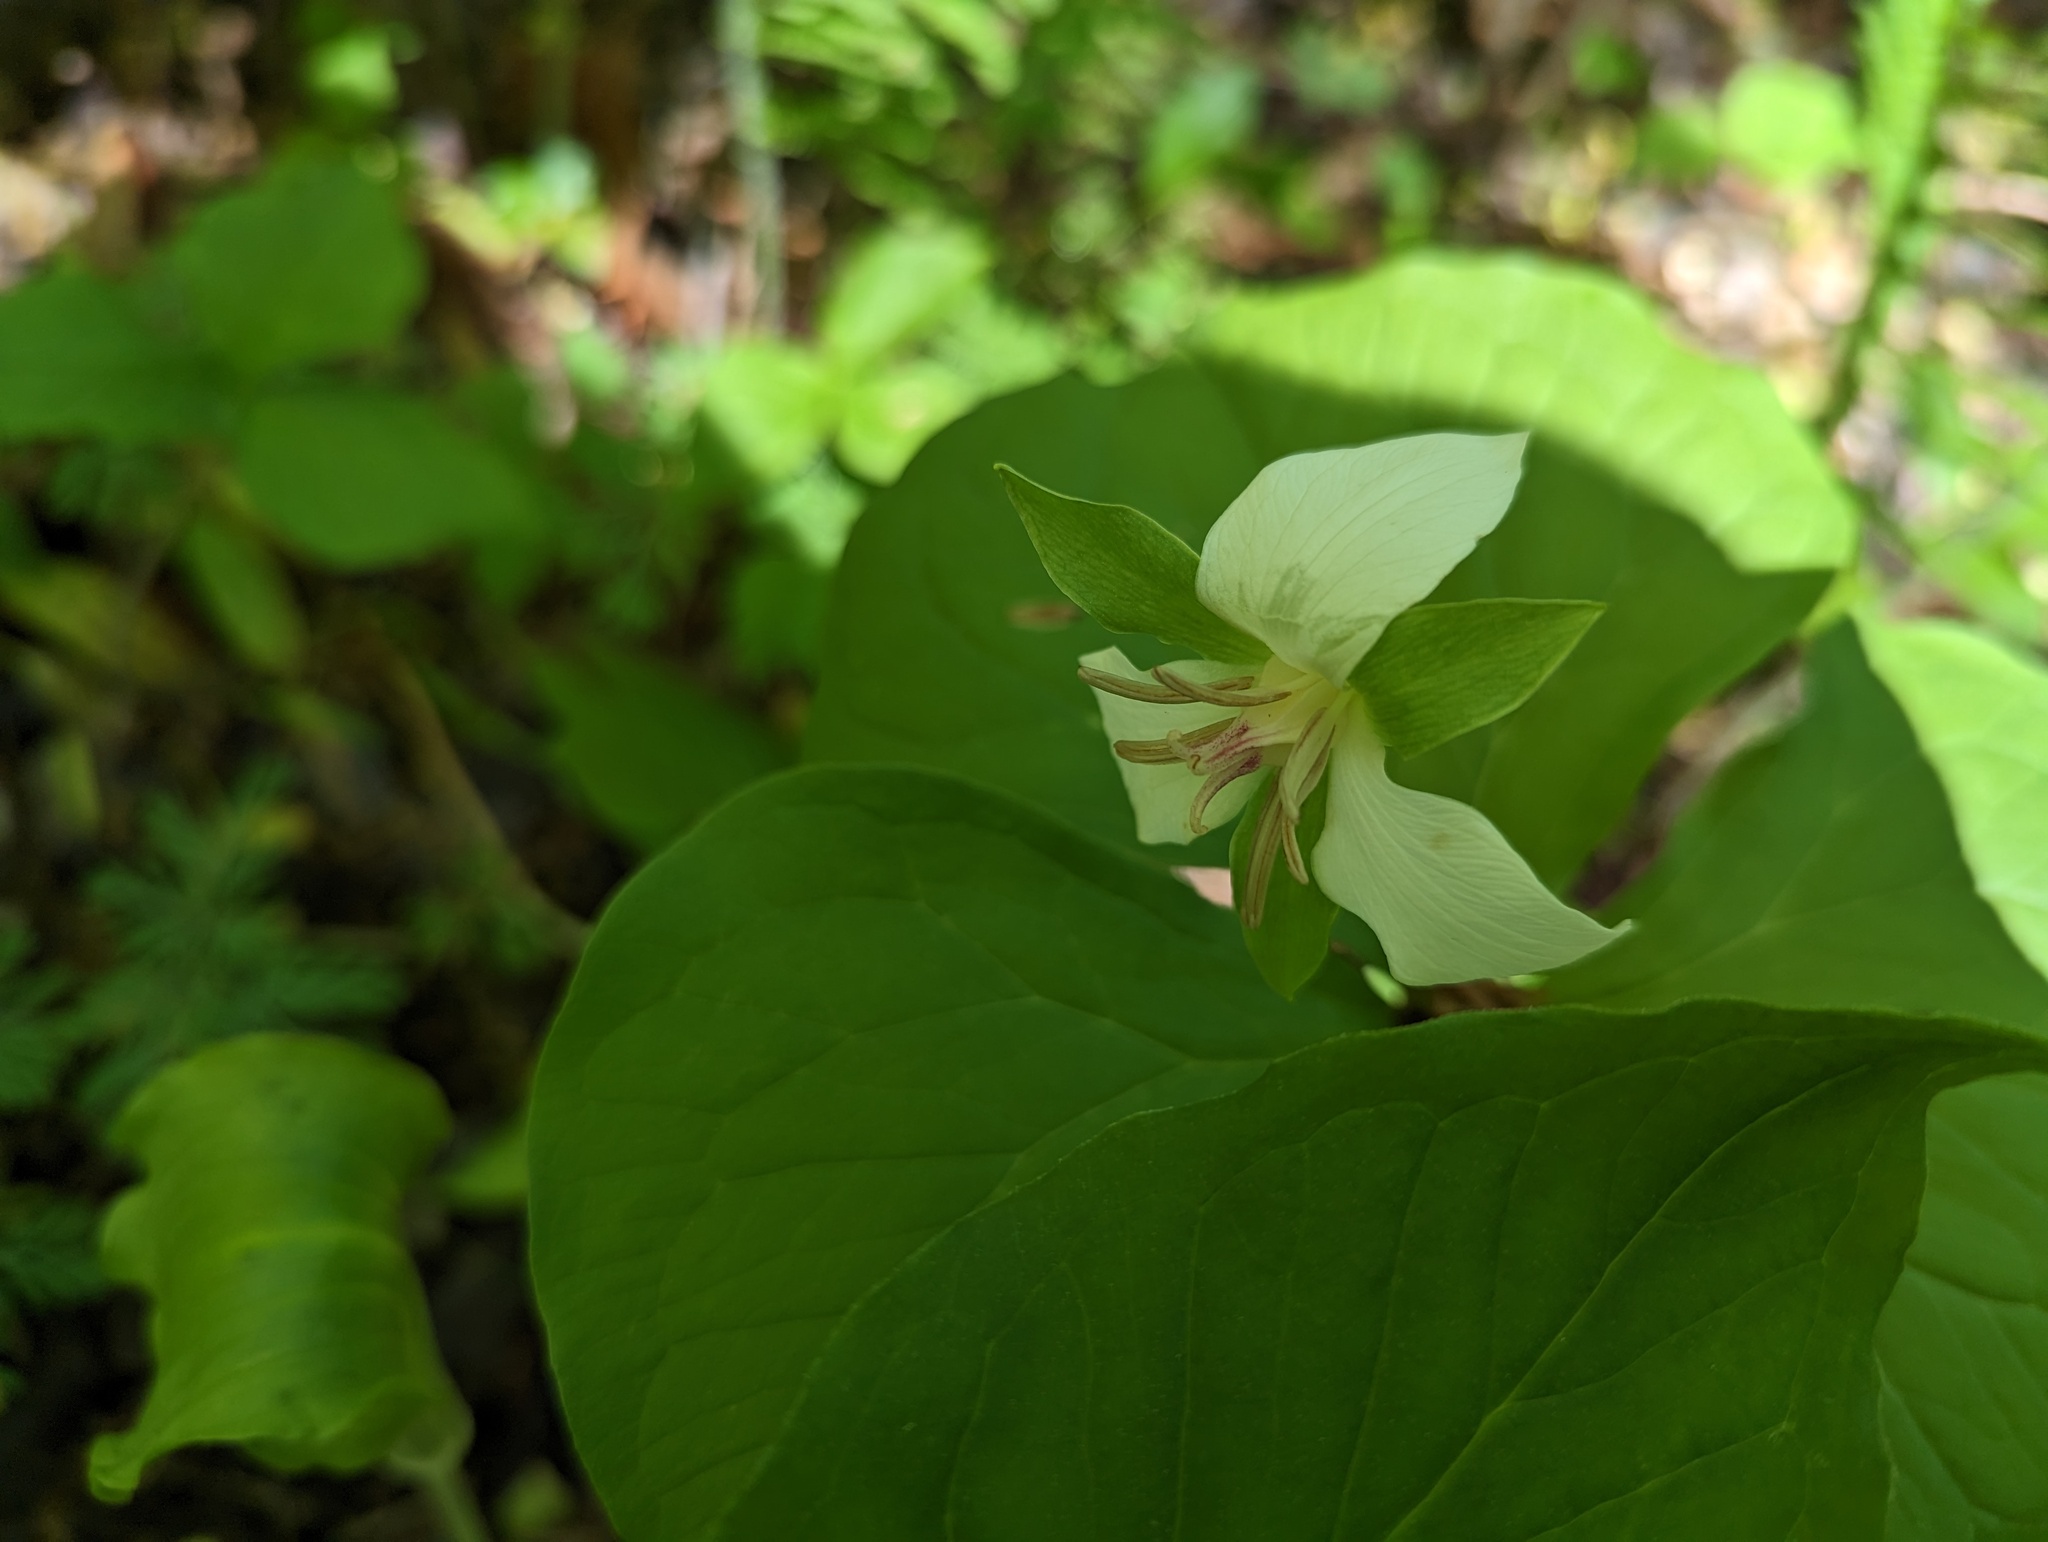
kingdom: Plantae
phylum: Tracheophyta
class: Liliopsida
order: Liliales
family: Melanthiaceae
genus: Trillium
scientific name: Trillium flexipes
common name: Drooping trillium
